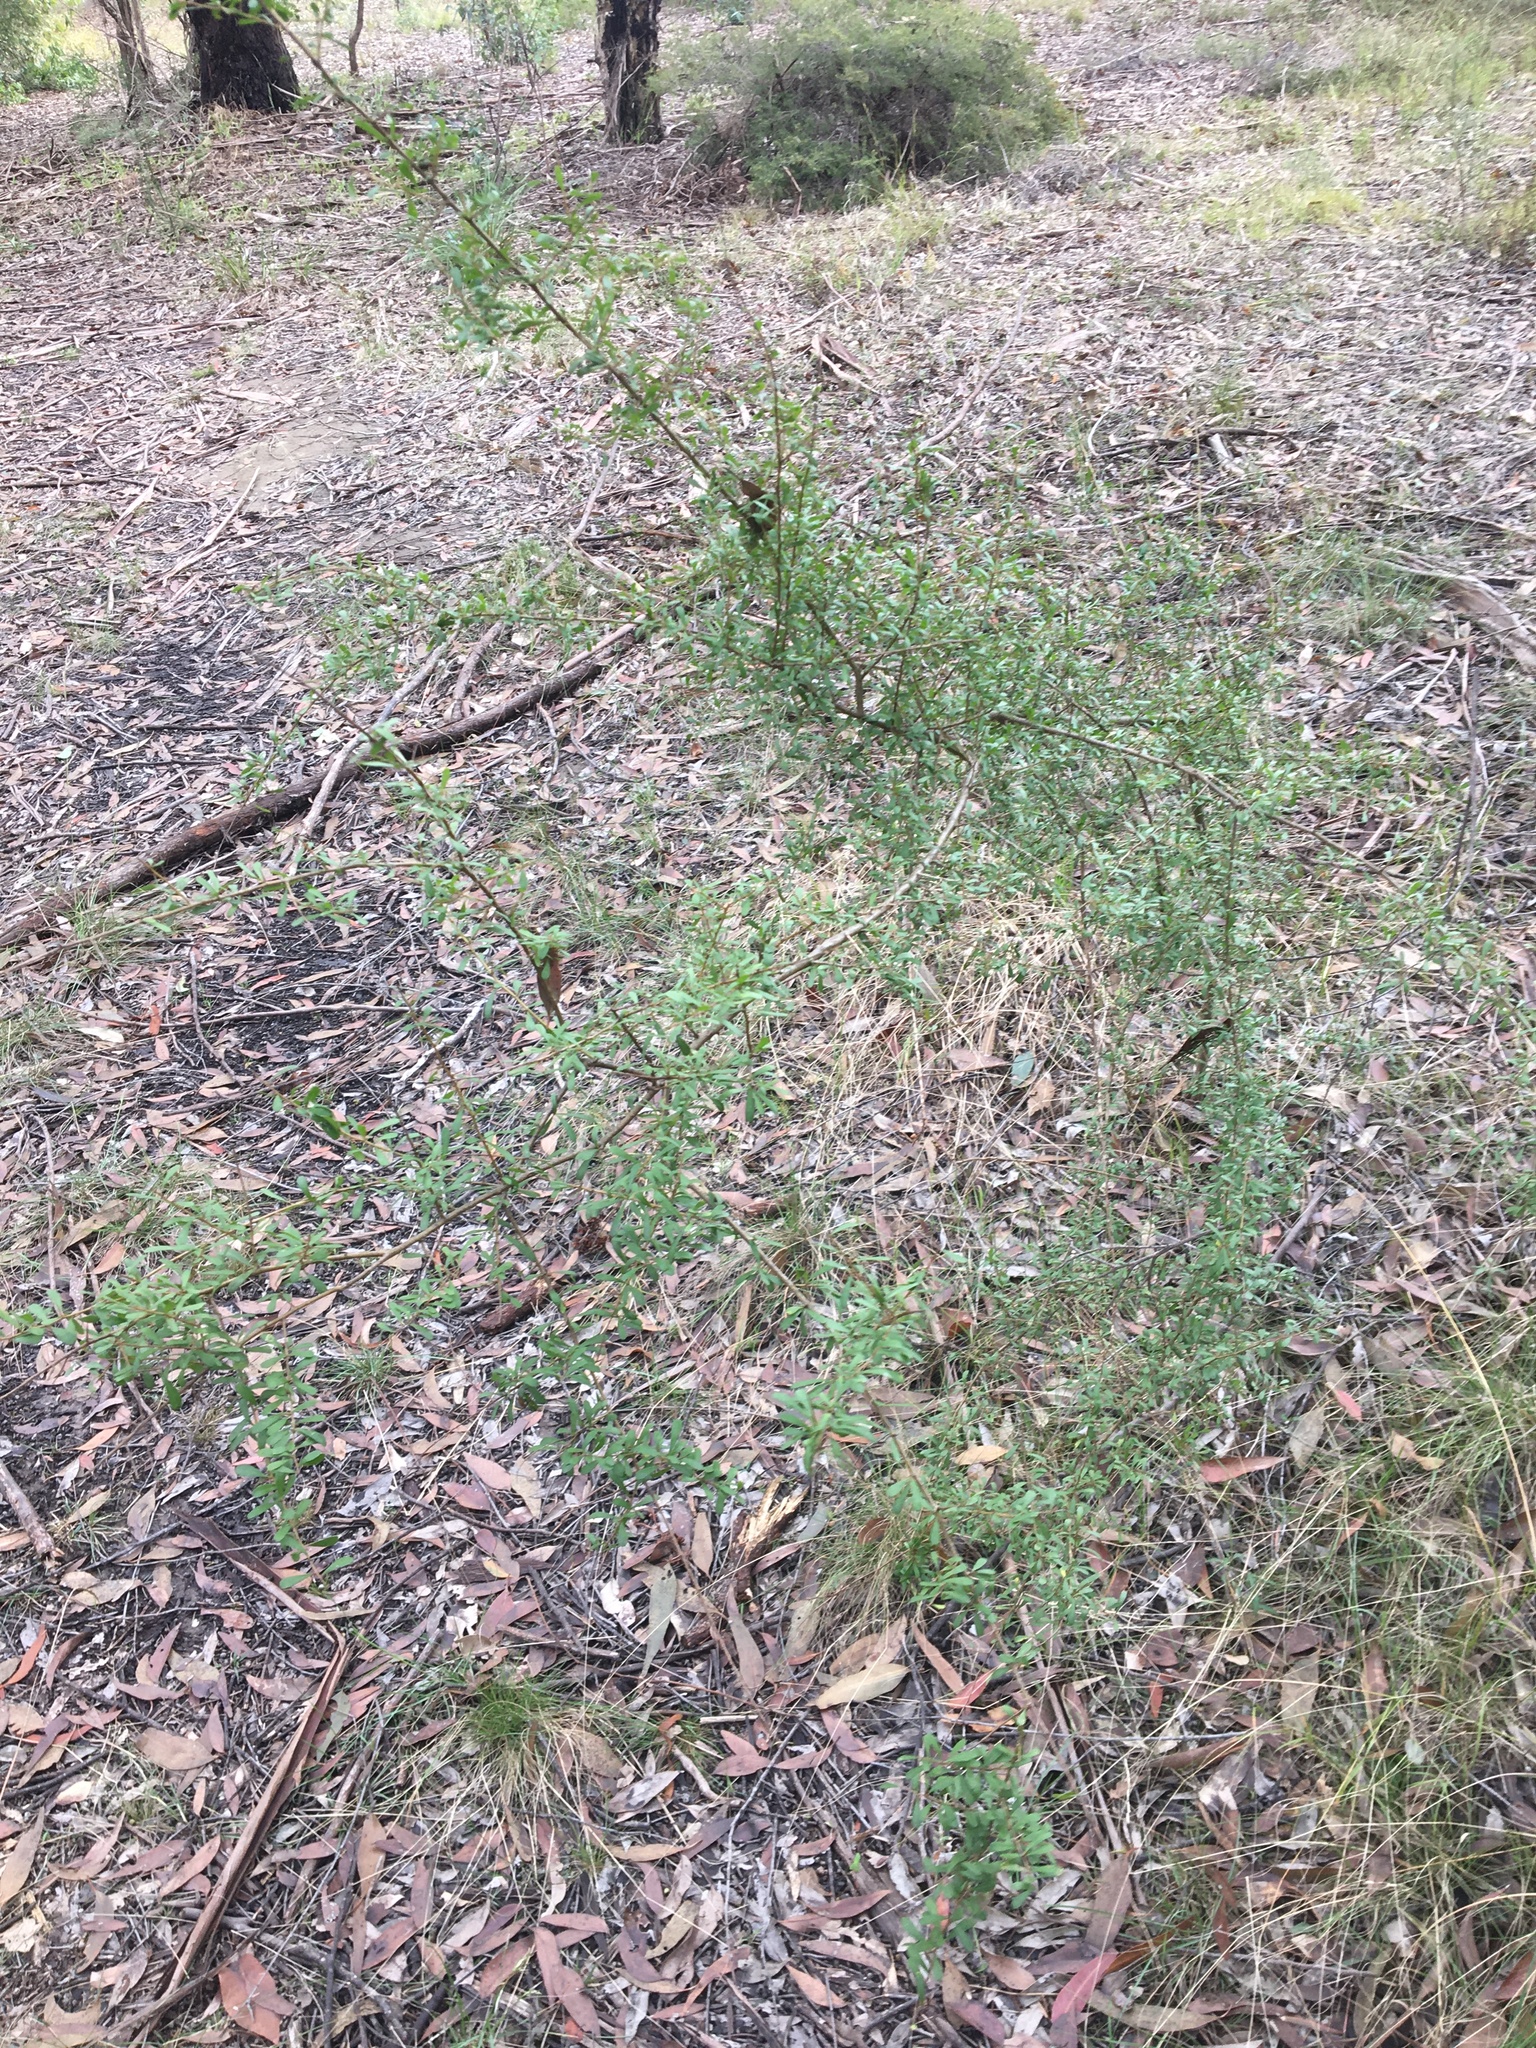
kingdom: Plantae
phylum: Tracheophyta
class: Magnoliopsida
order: Apiales
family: Pittosporaceae
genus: Bursaria
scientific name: Bursaria spinosa
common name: Australian blackthorn
